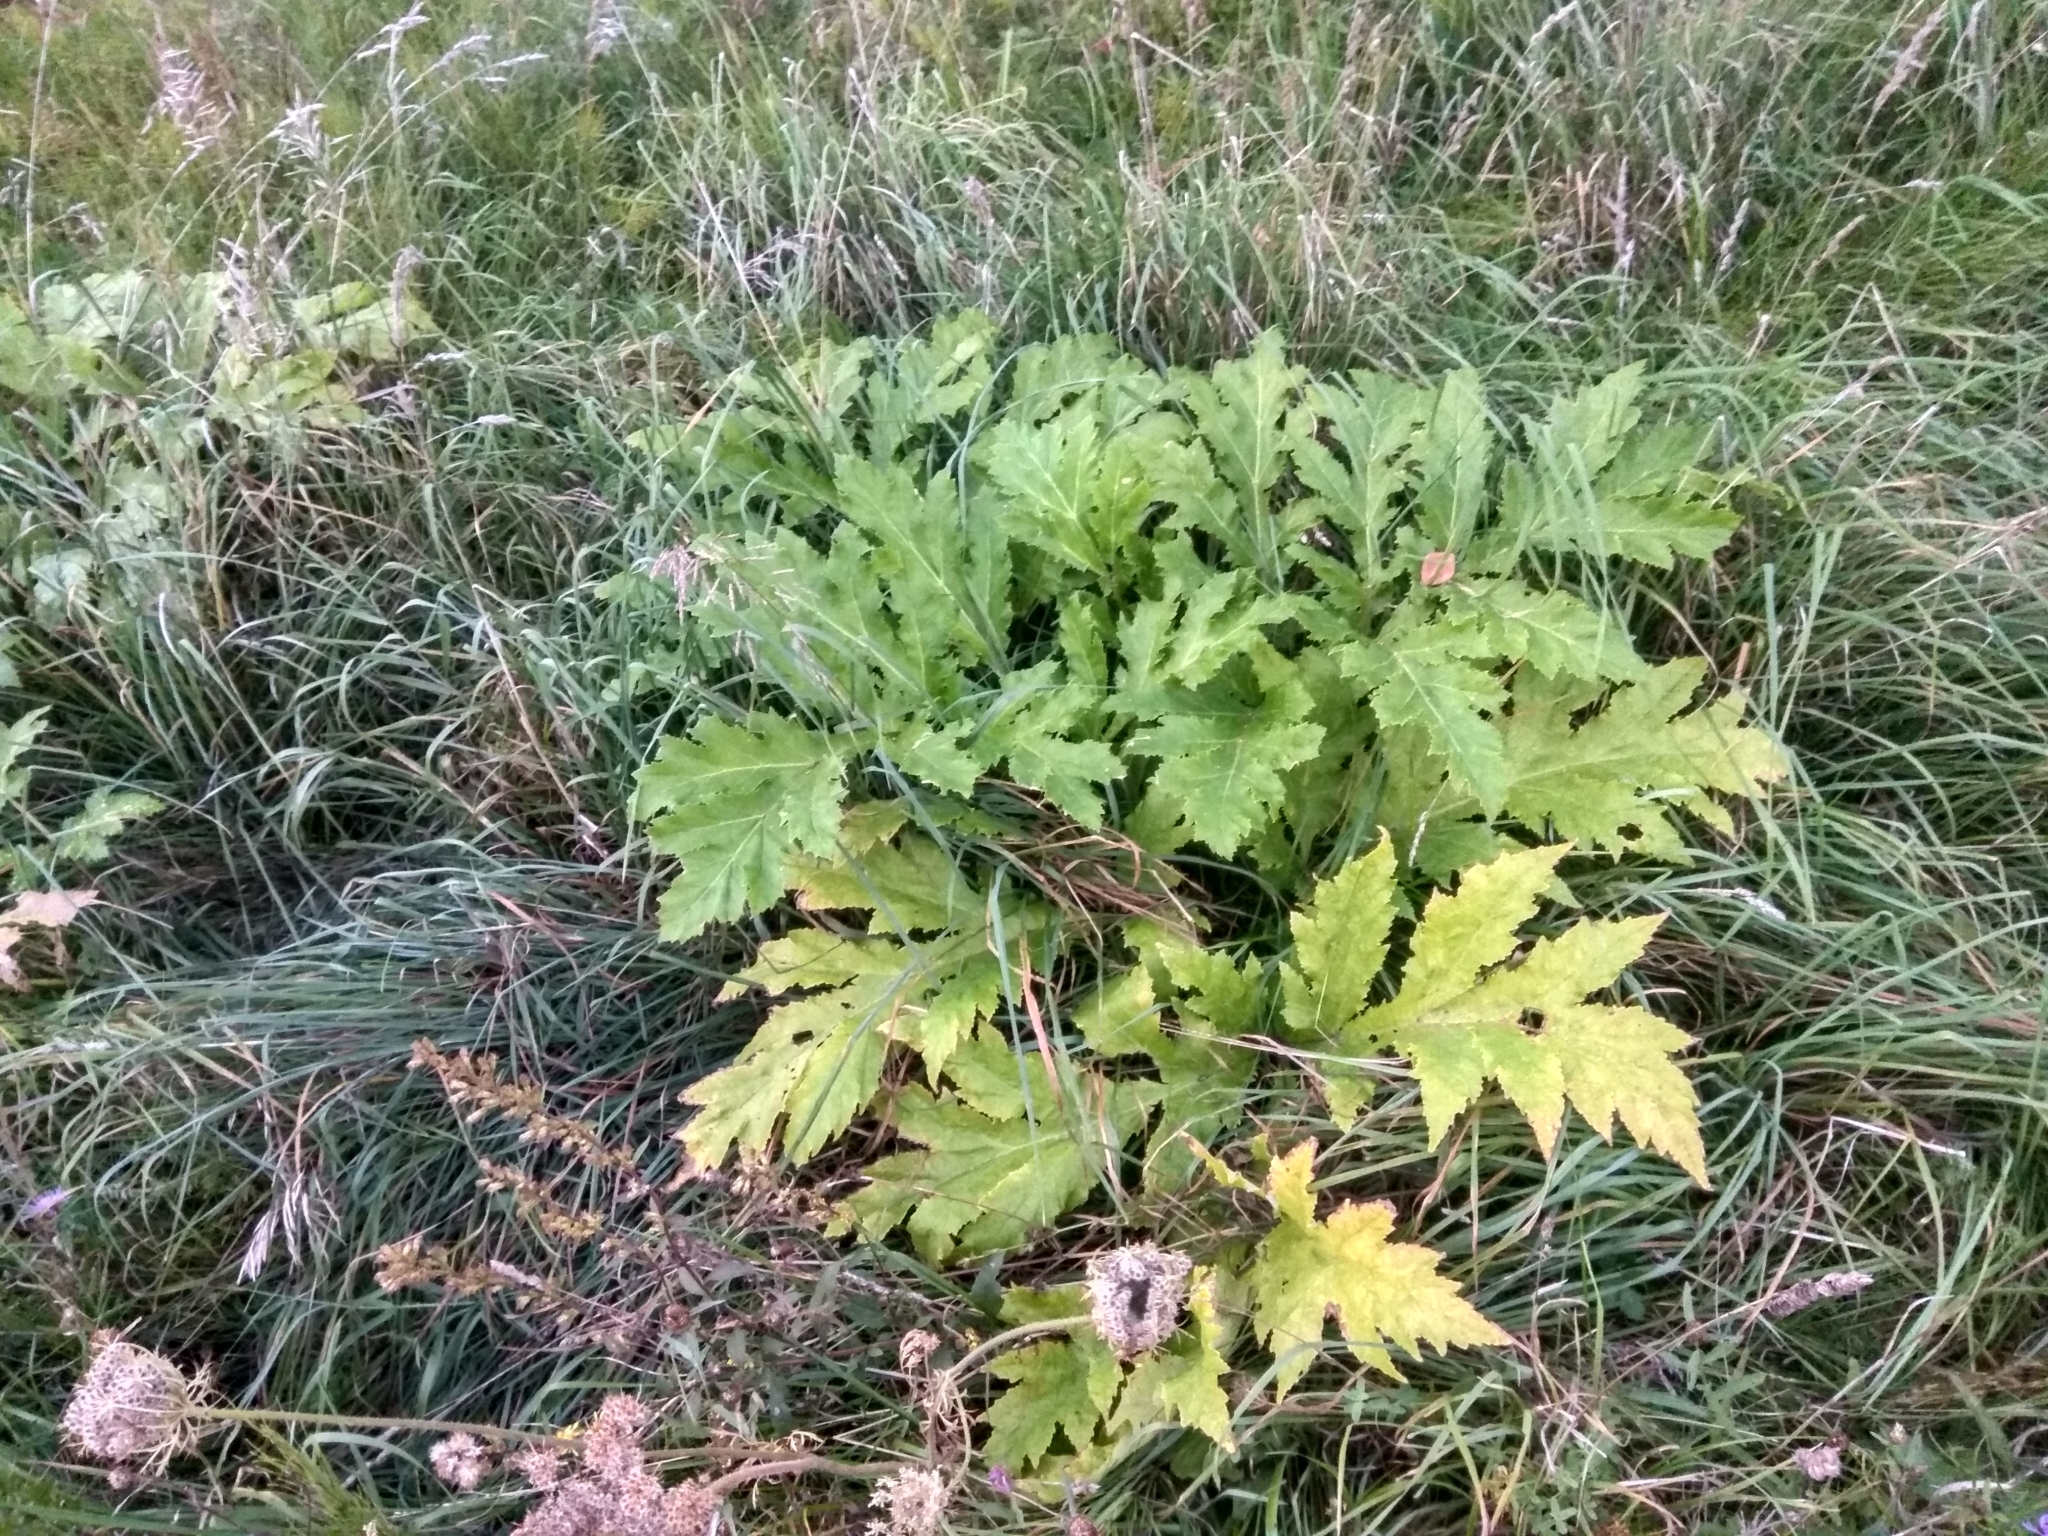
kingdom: Plantae
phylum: Tracheophyta
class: Magnoliopsida
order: Apiales
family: Apiaceae
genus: Heracleum
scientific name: Heracleum sosnowskyi
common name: Sosnowsky's hogweed
